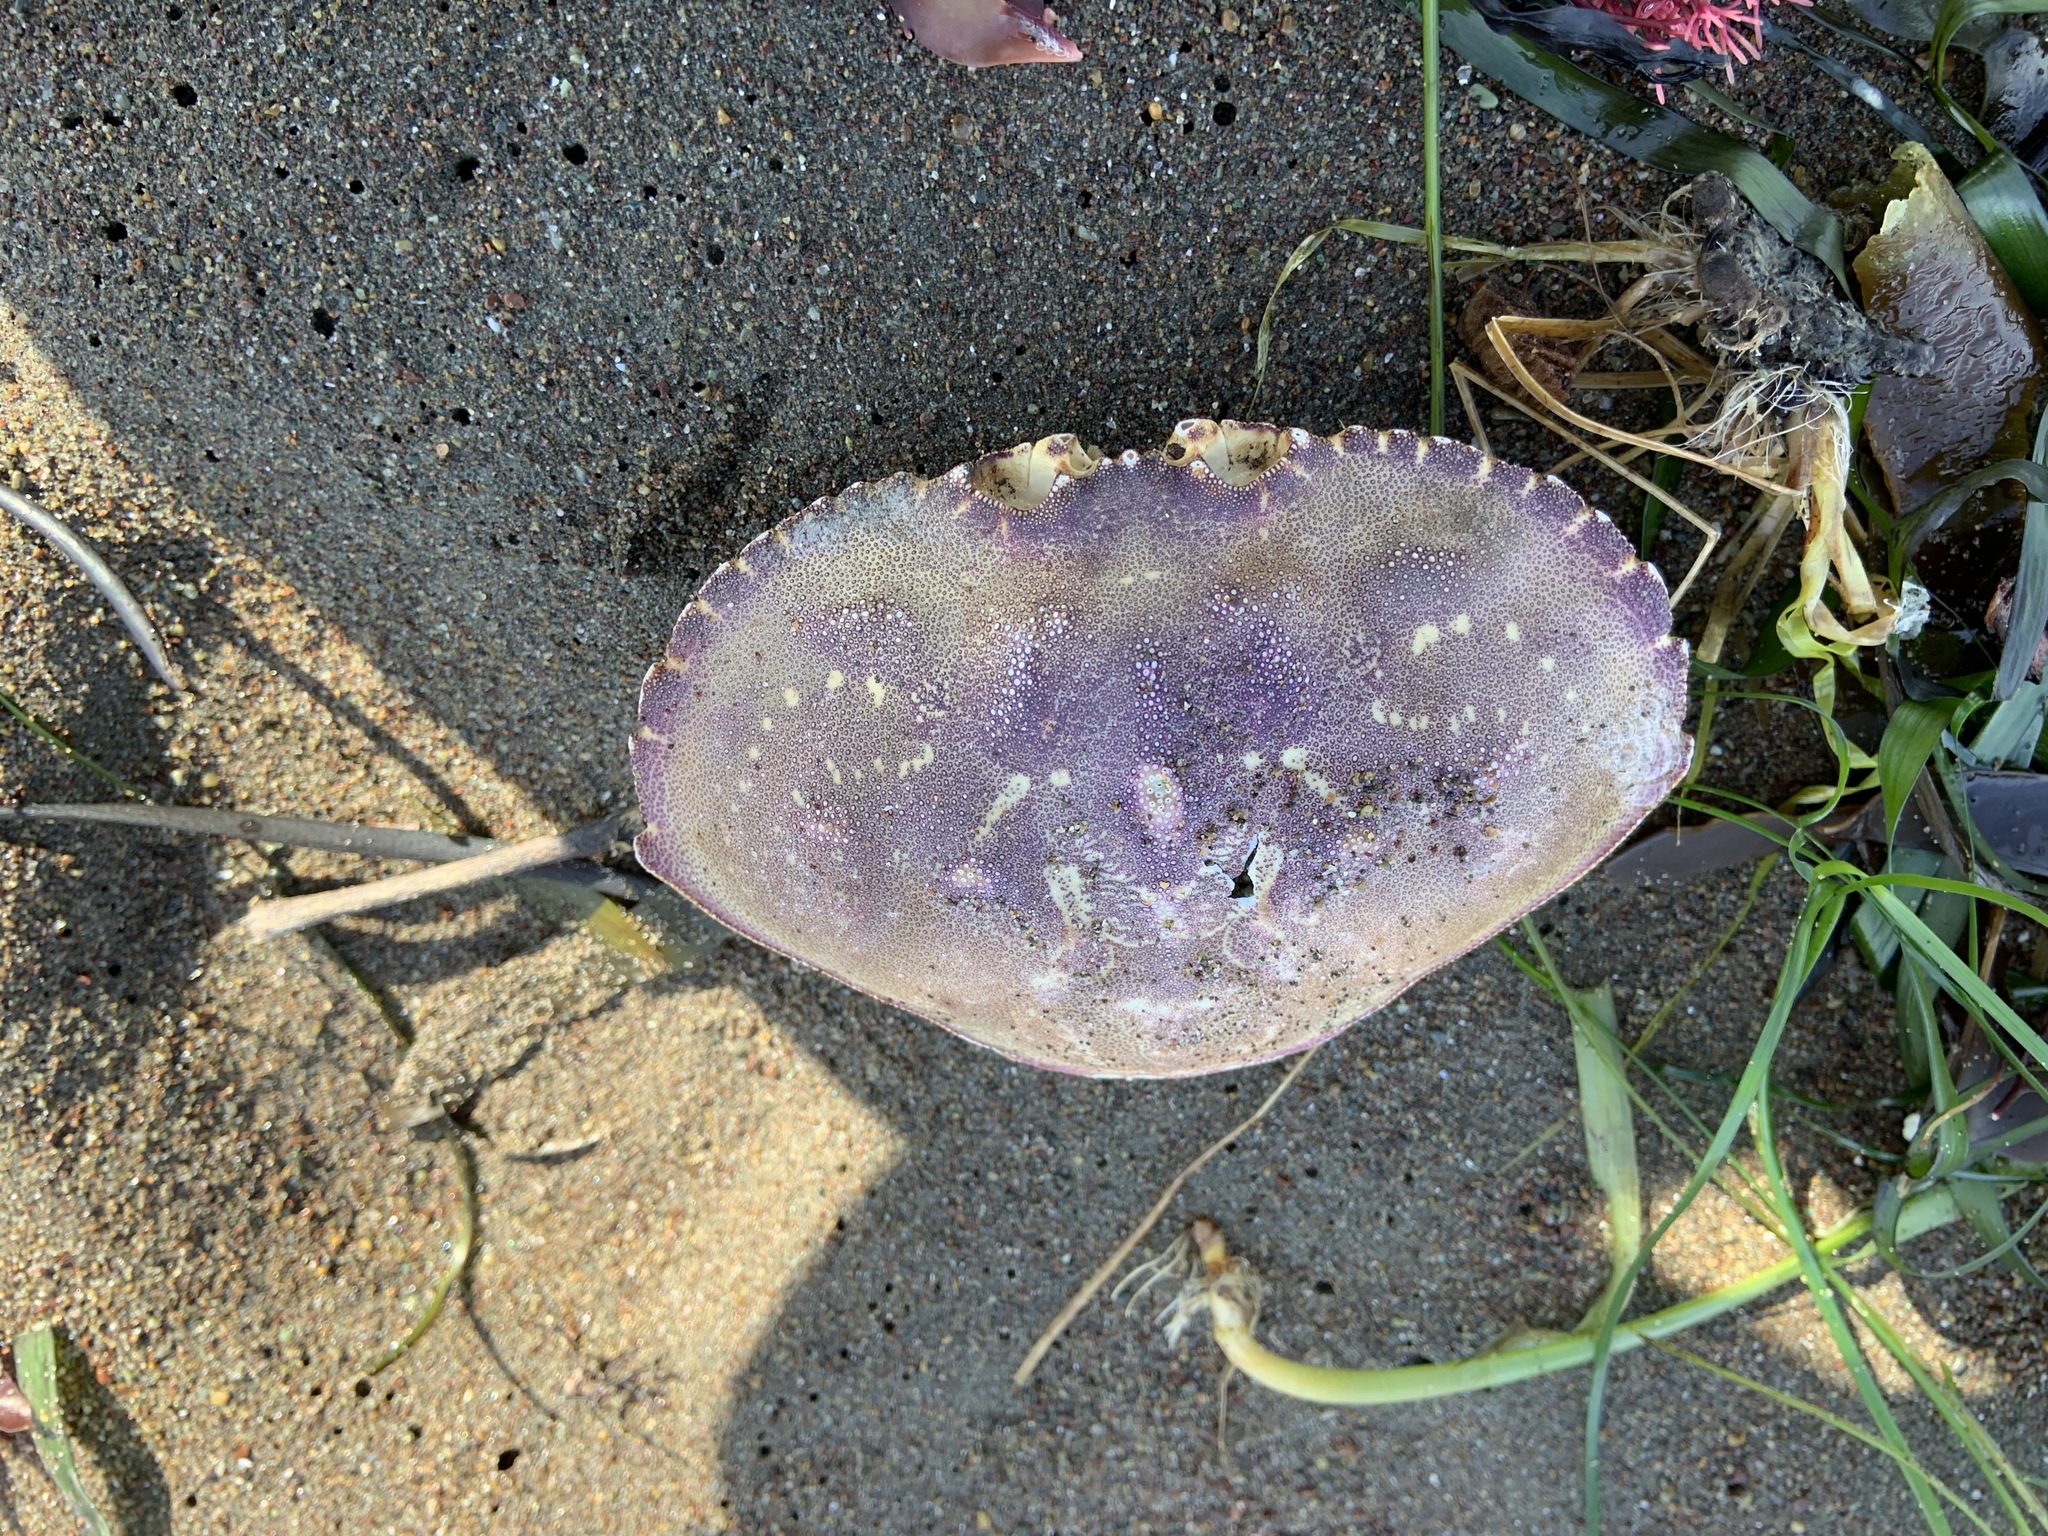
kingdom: Animalia
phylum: Arthropoda
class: Malacostraca
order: Decapoda
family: Cancridae
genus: Metacarcinus
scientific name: Metacarcinus magister
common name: Californian crab
